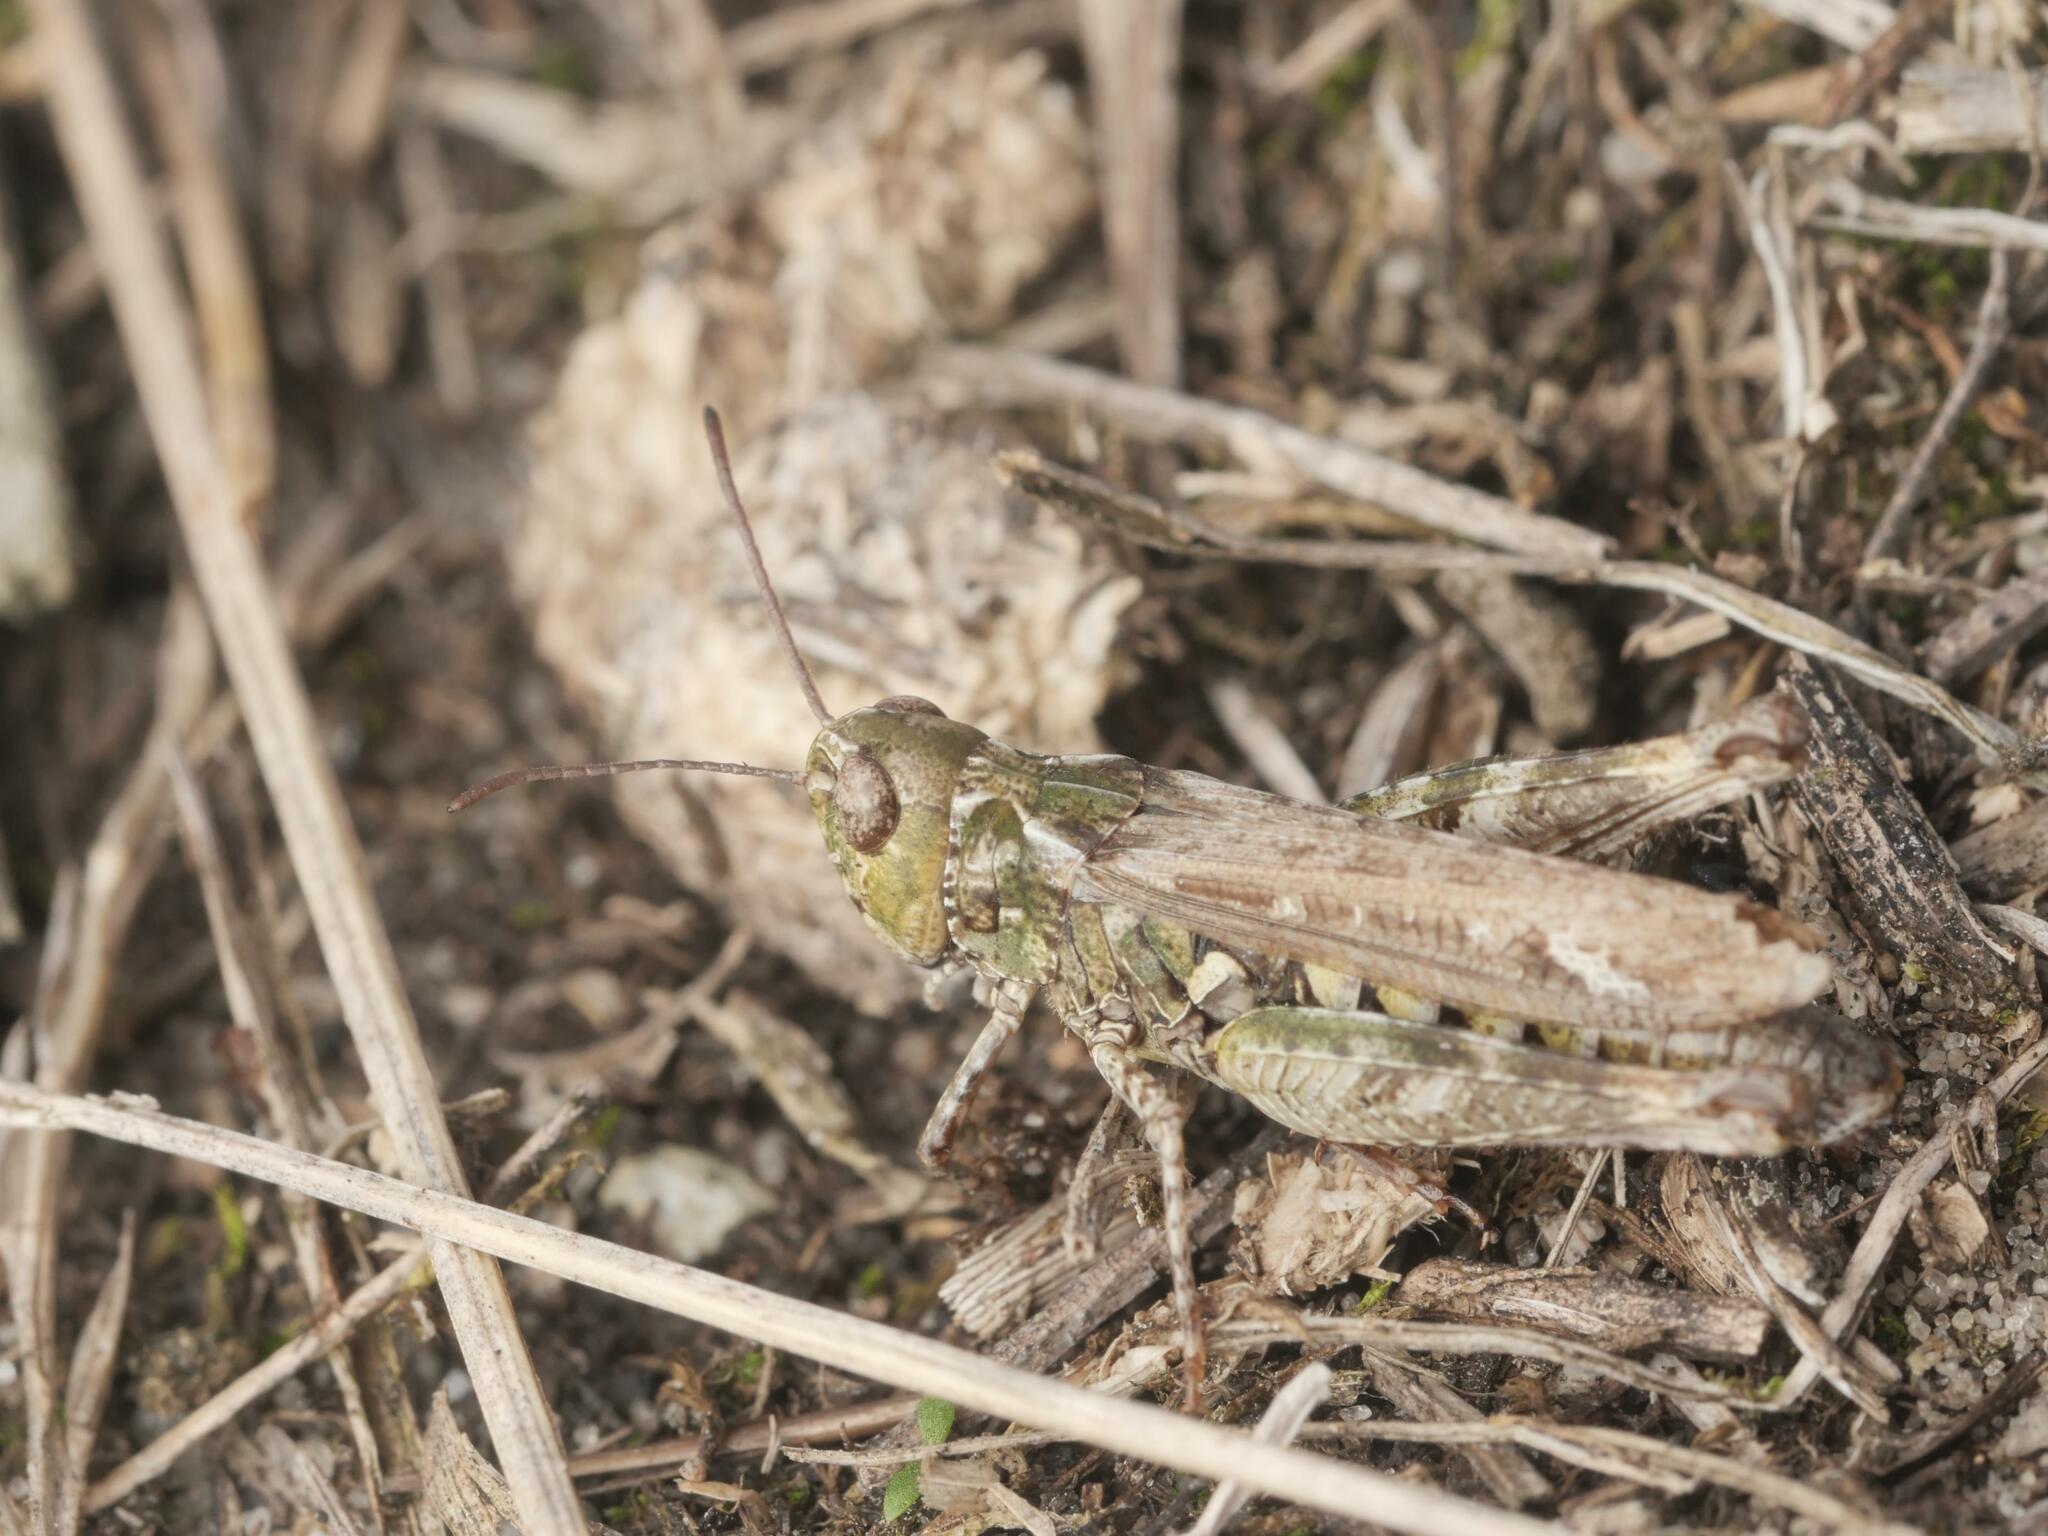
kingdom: Animalia
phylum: Arthropoda
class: Insecta
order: Orthoptera
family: Acrididae
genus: Myrmeleotettix
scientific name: Myrmeleotettix maculatus
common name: Mottled grasshopper
